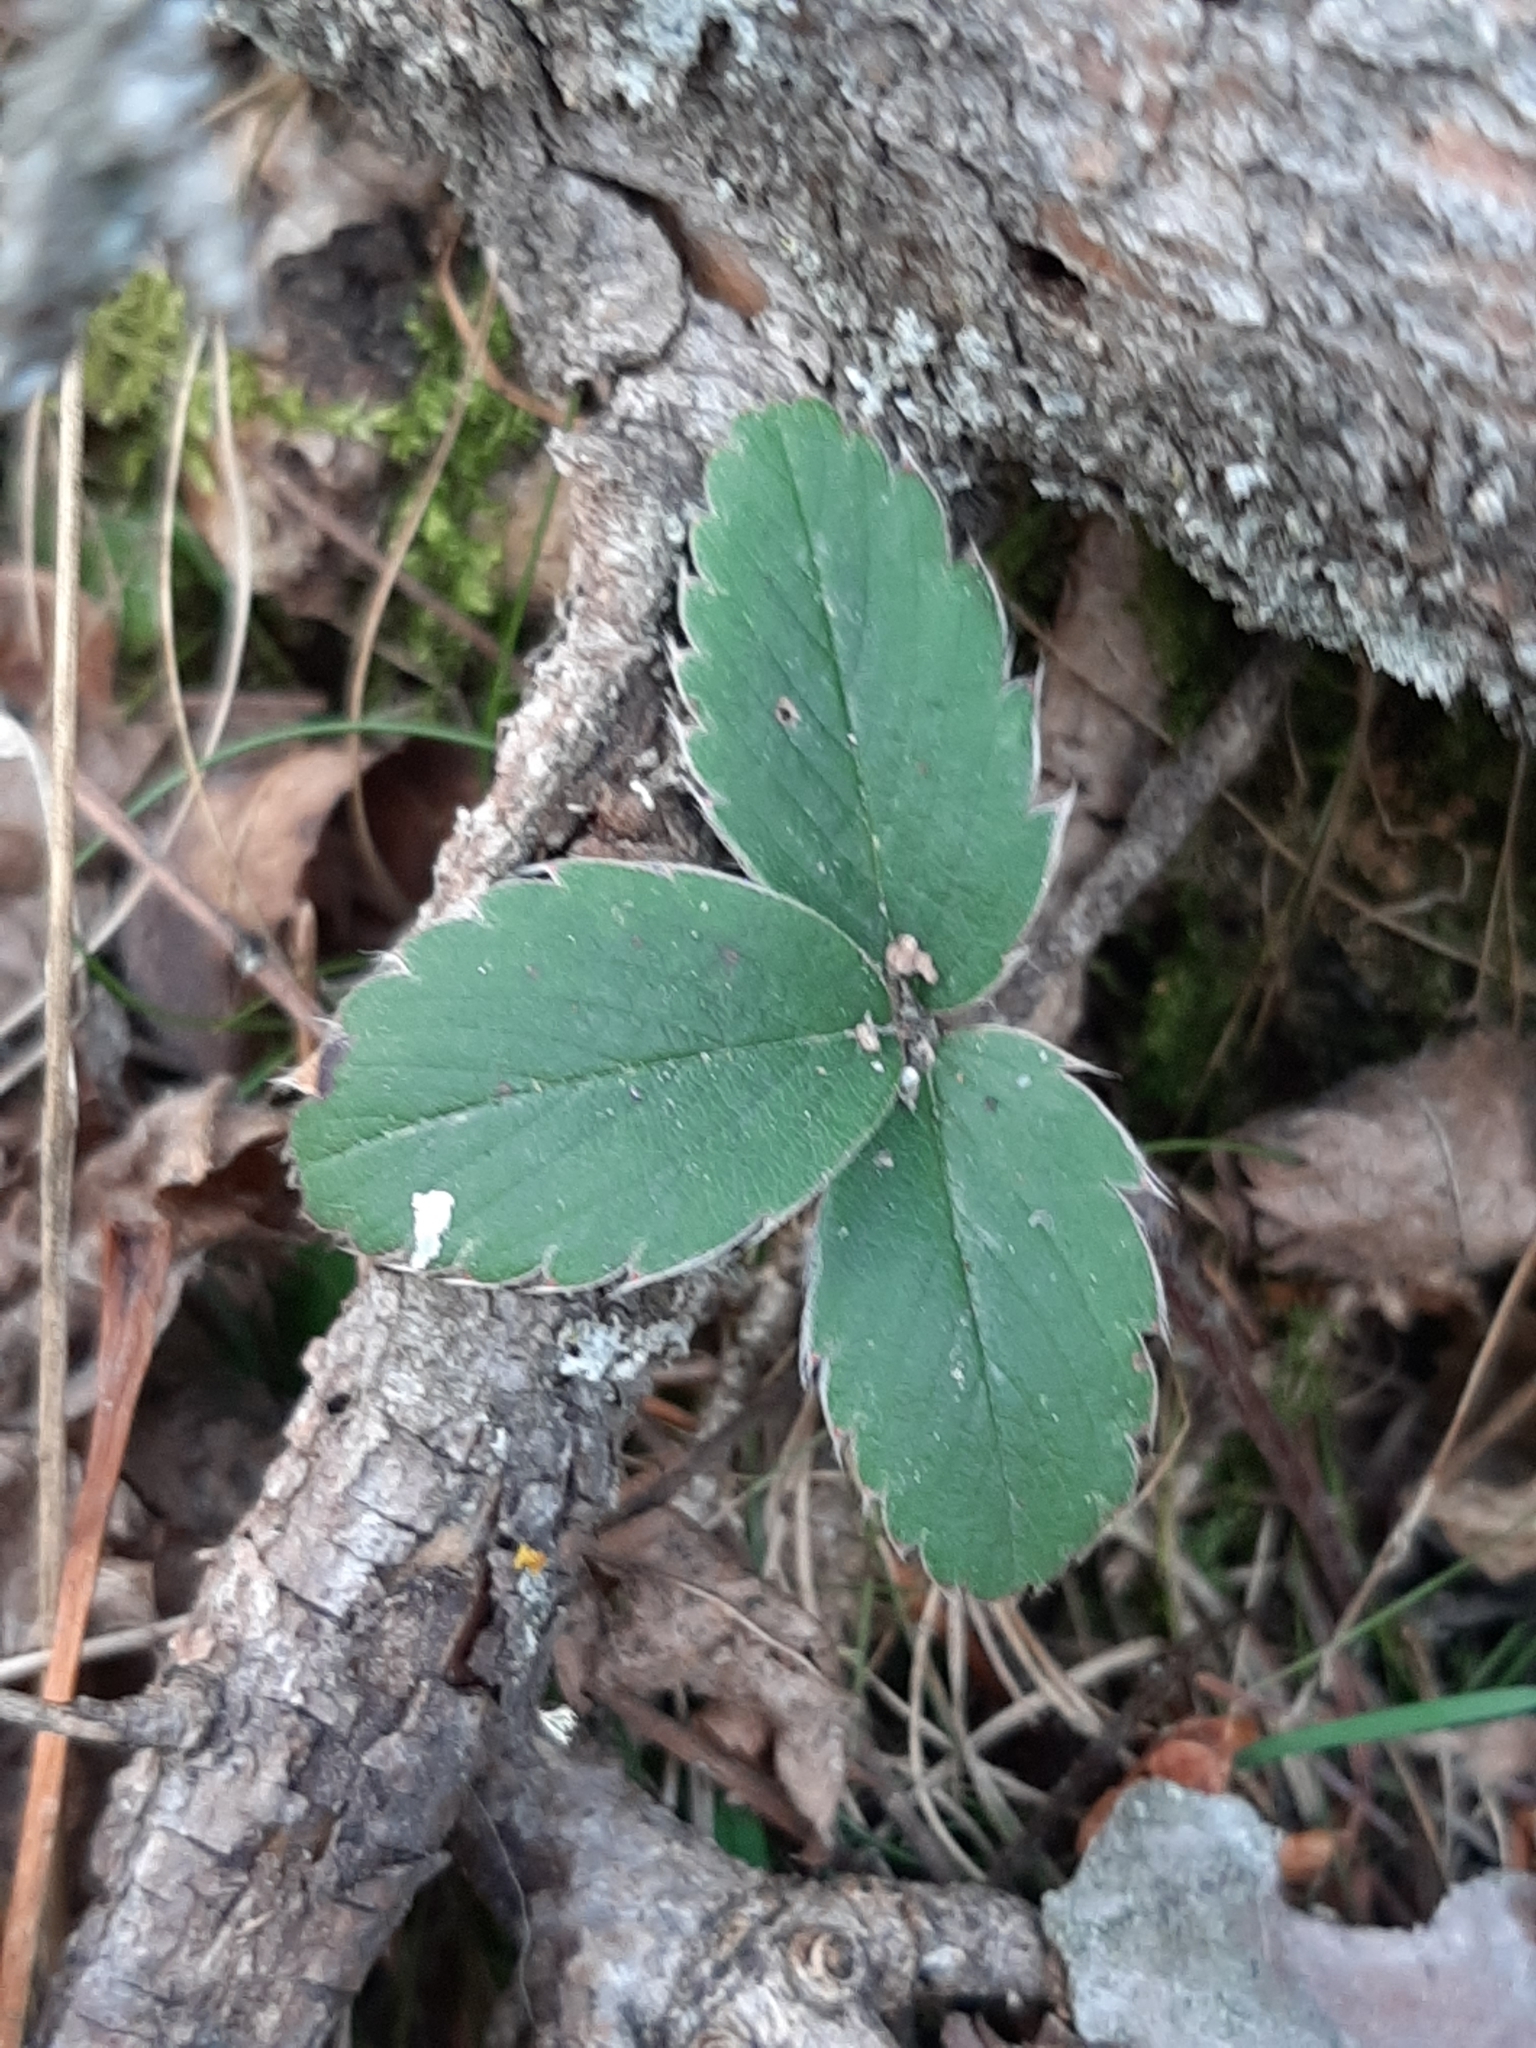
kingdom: Plantae
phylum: Tracheophyta
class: Magnoliopsida
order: Rosales
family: Rosaceae
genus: Fragaria
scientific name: Fragaria virginiana
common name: Thickleaved wild strawberry
